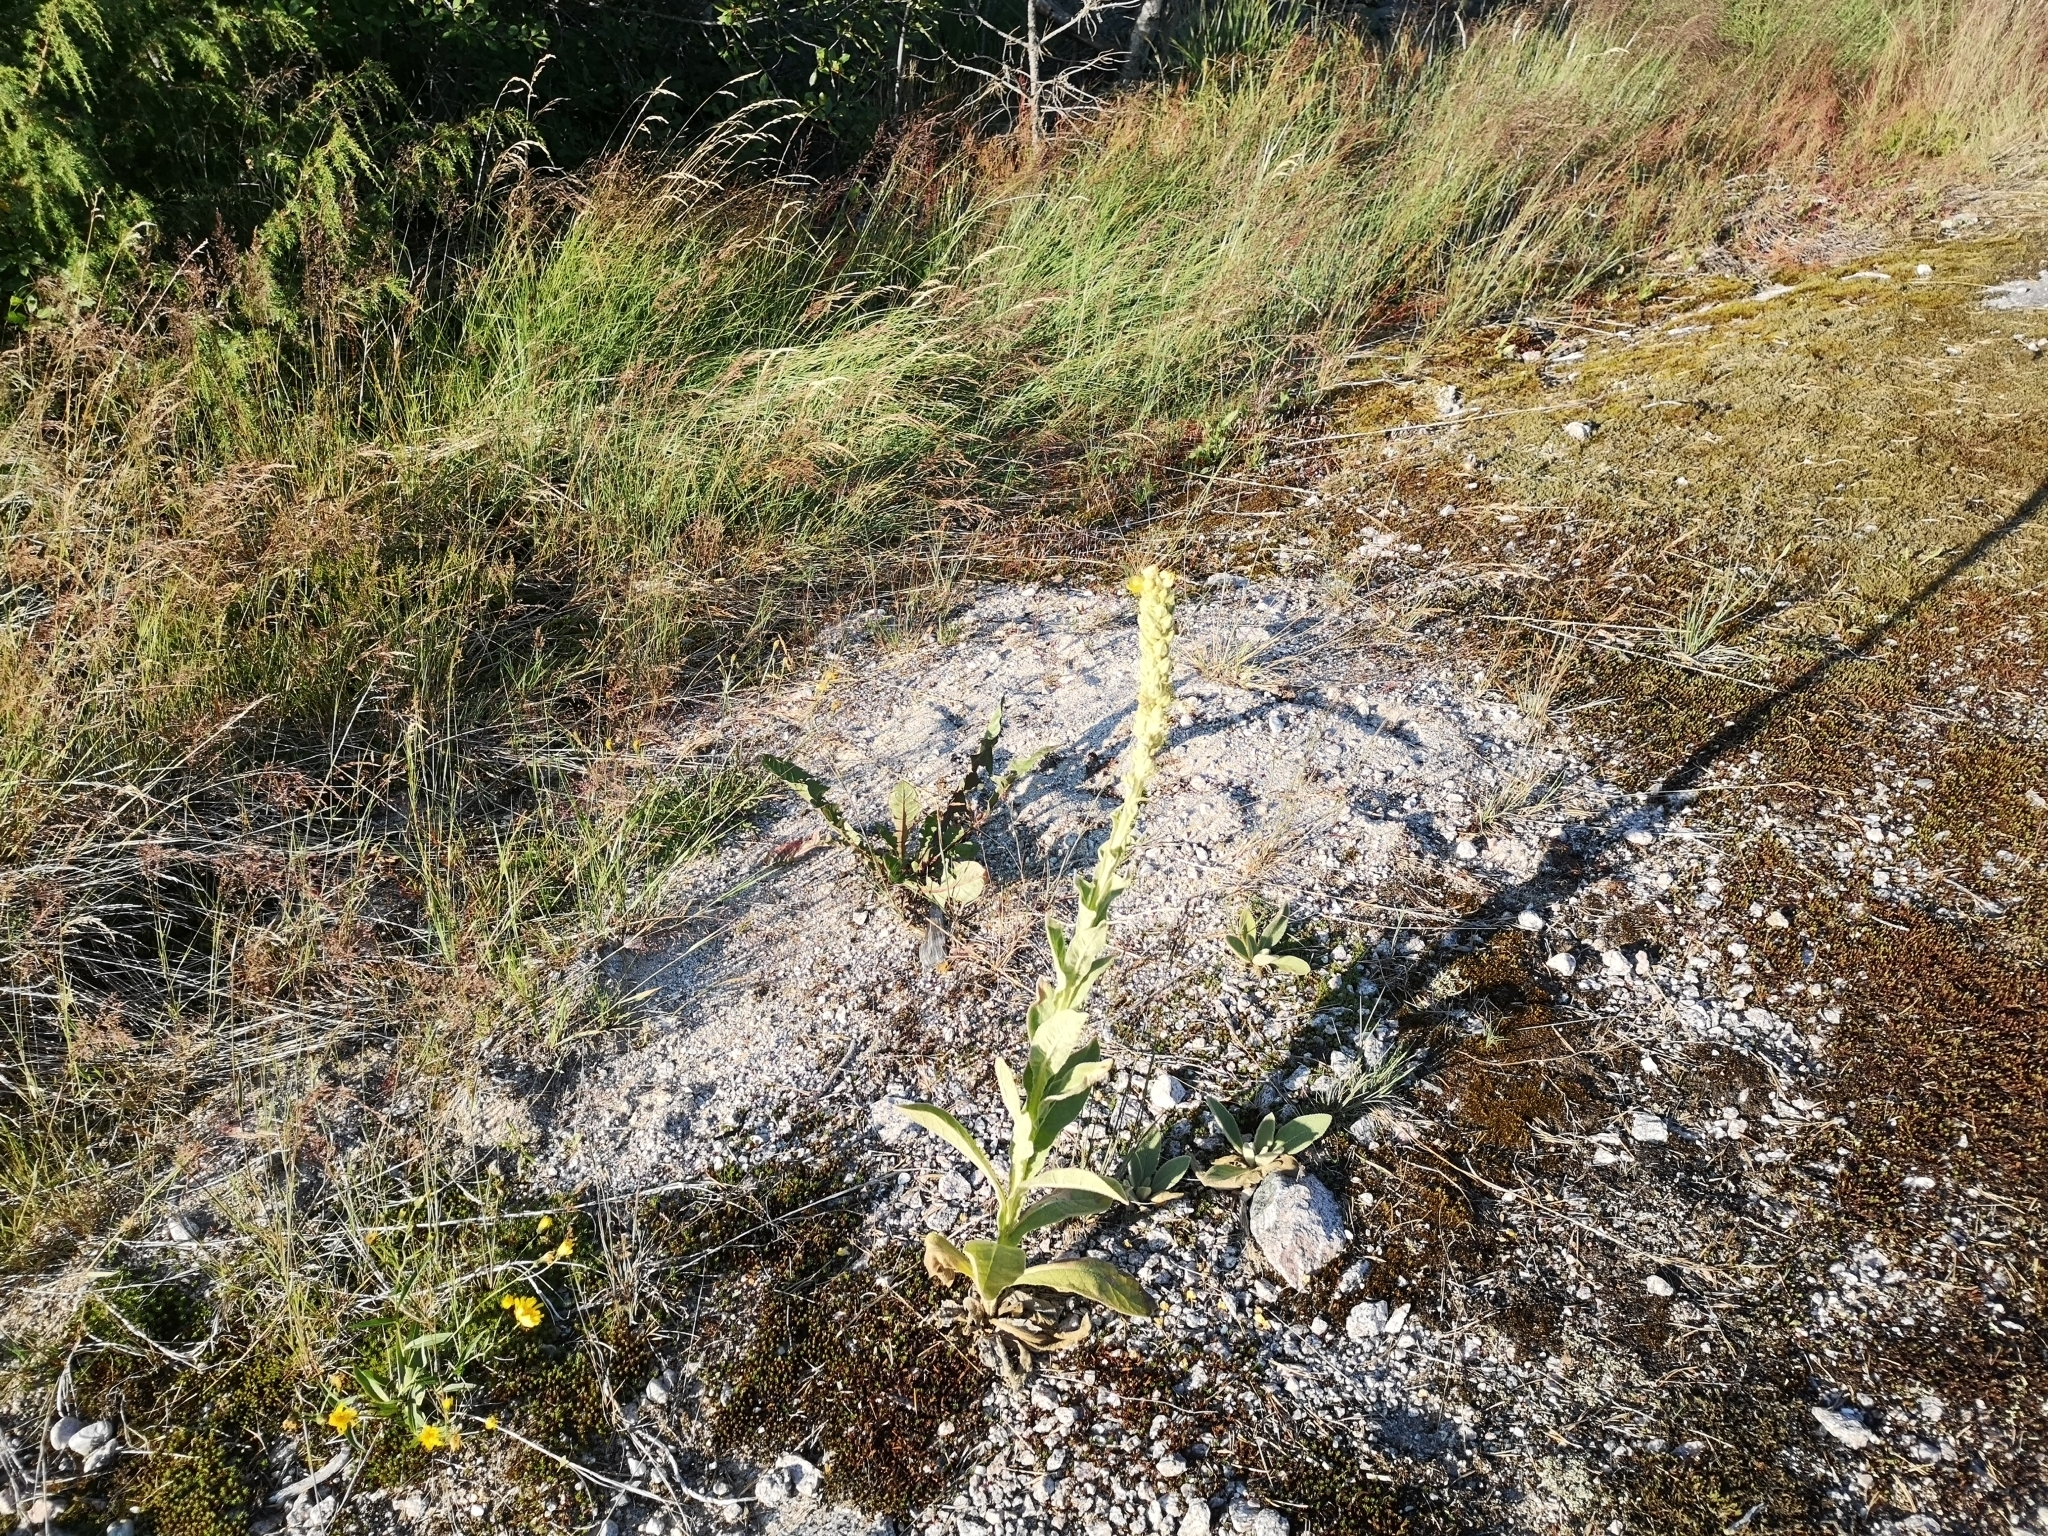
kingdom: Plantae
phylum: Tracheophyta
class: Magnoliopsida
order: Lamiales
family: Scrophulariaceae
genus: Verbascum
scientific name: Verbascum thapsus
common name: Common mullein
